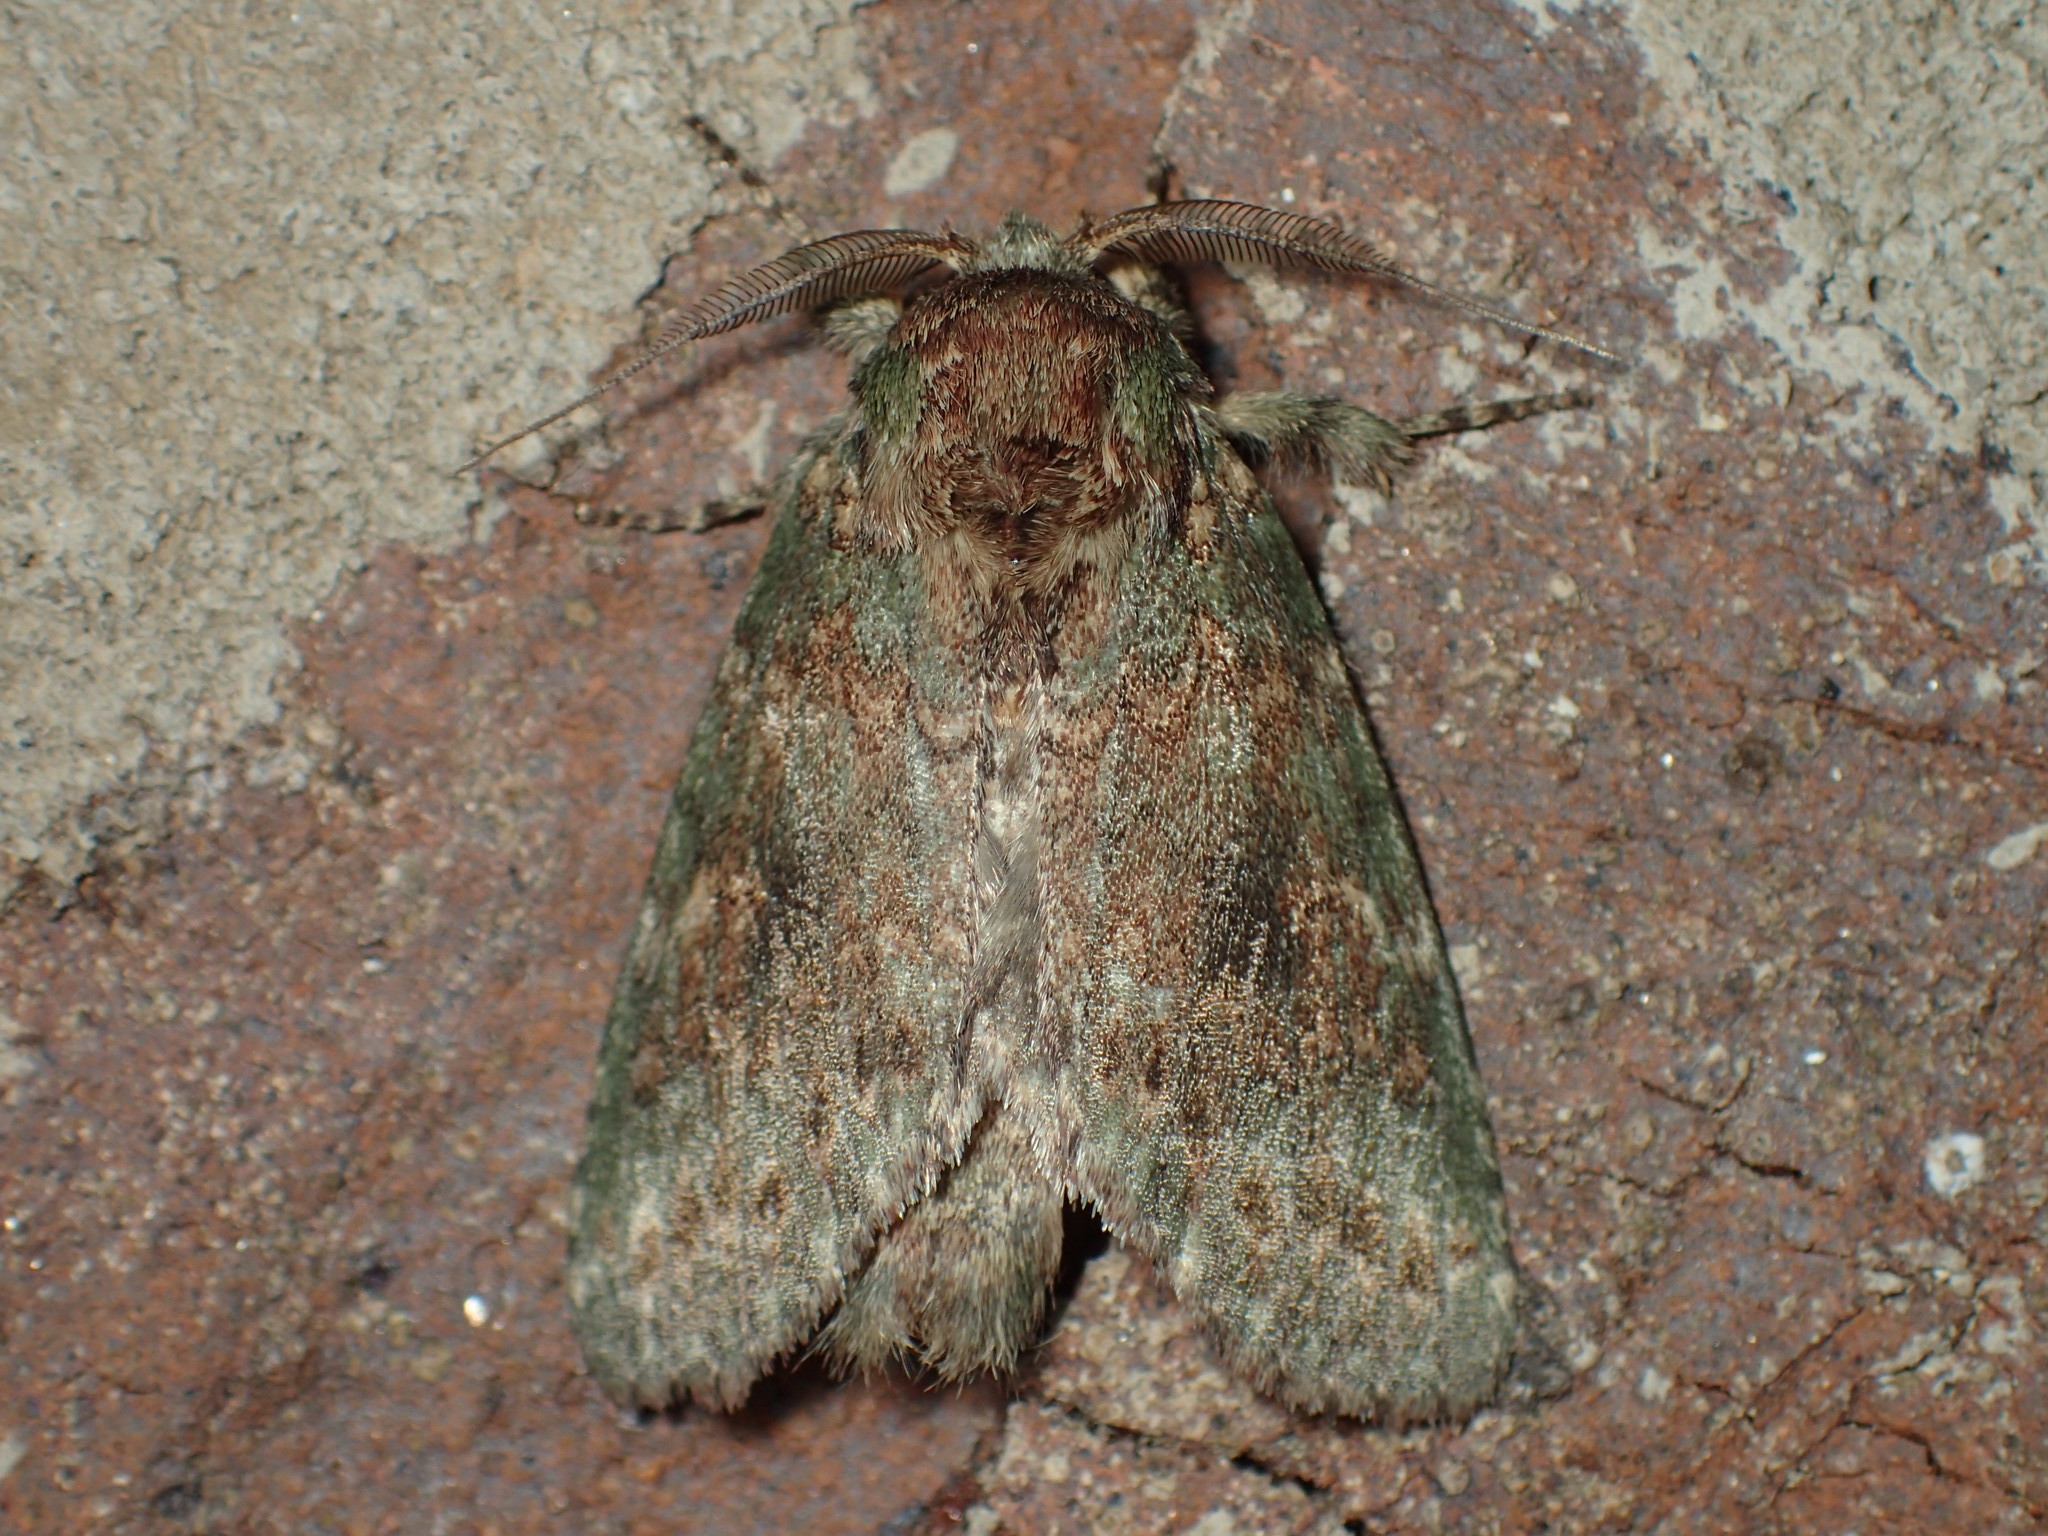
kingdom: Animalia
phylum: Arthropoda
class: Insecta
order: Lepidoptera
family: Notodontidae
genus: Disphragis
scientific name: Disphragis Cecrita biundata
